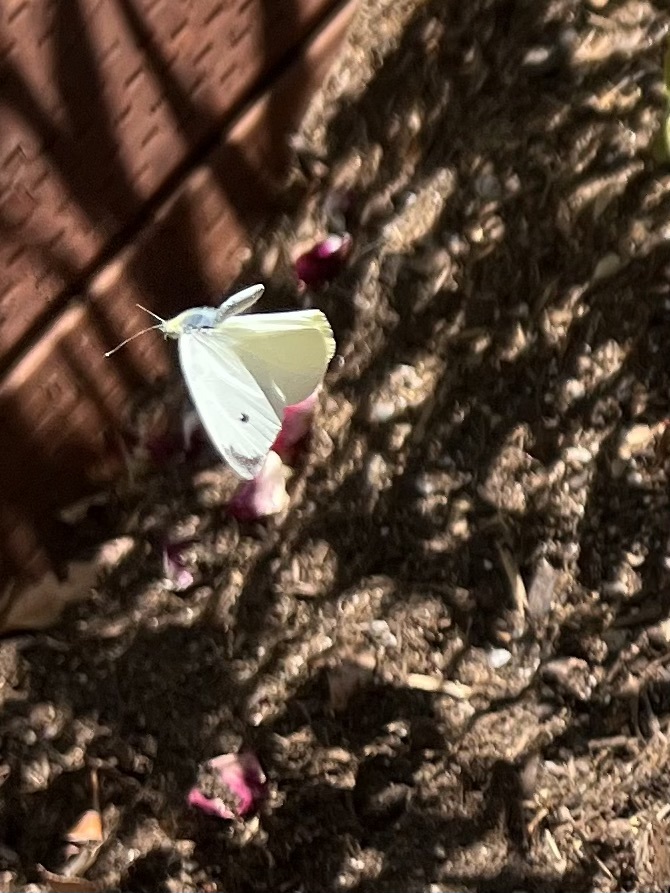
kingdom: Animalia
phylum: Arthropoda
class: Insecta
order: Lepidoptera
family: Pieridae
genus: Pieris
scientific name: Pieris rapae
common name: Small white
